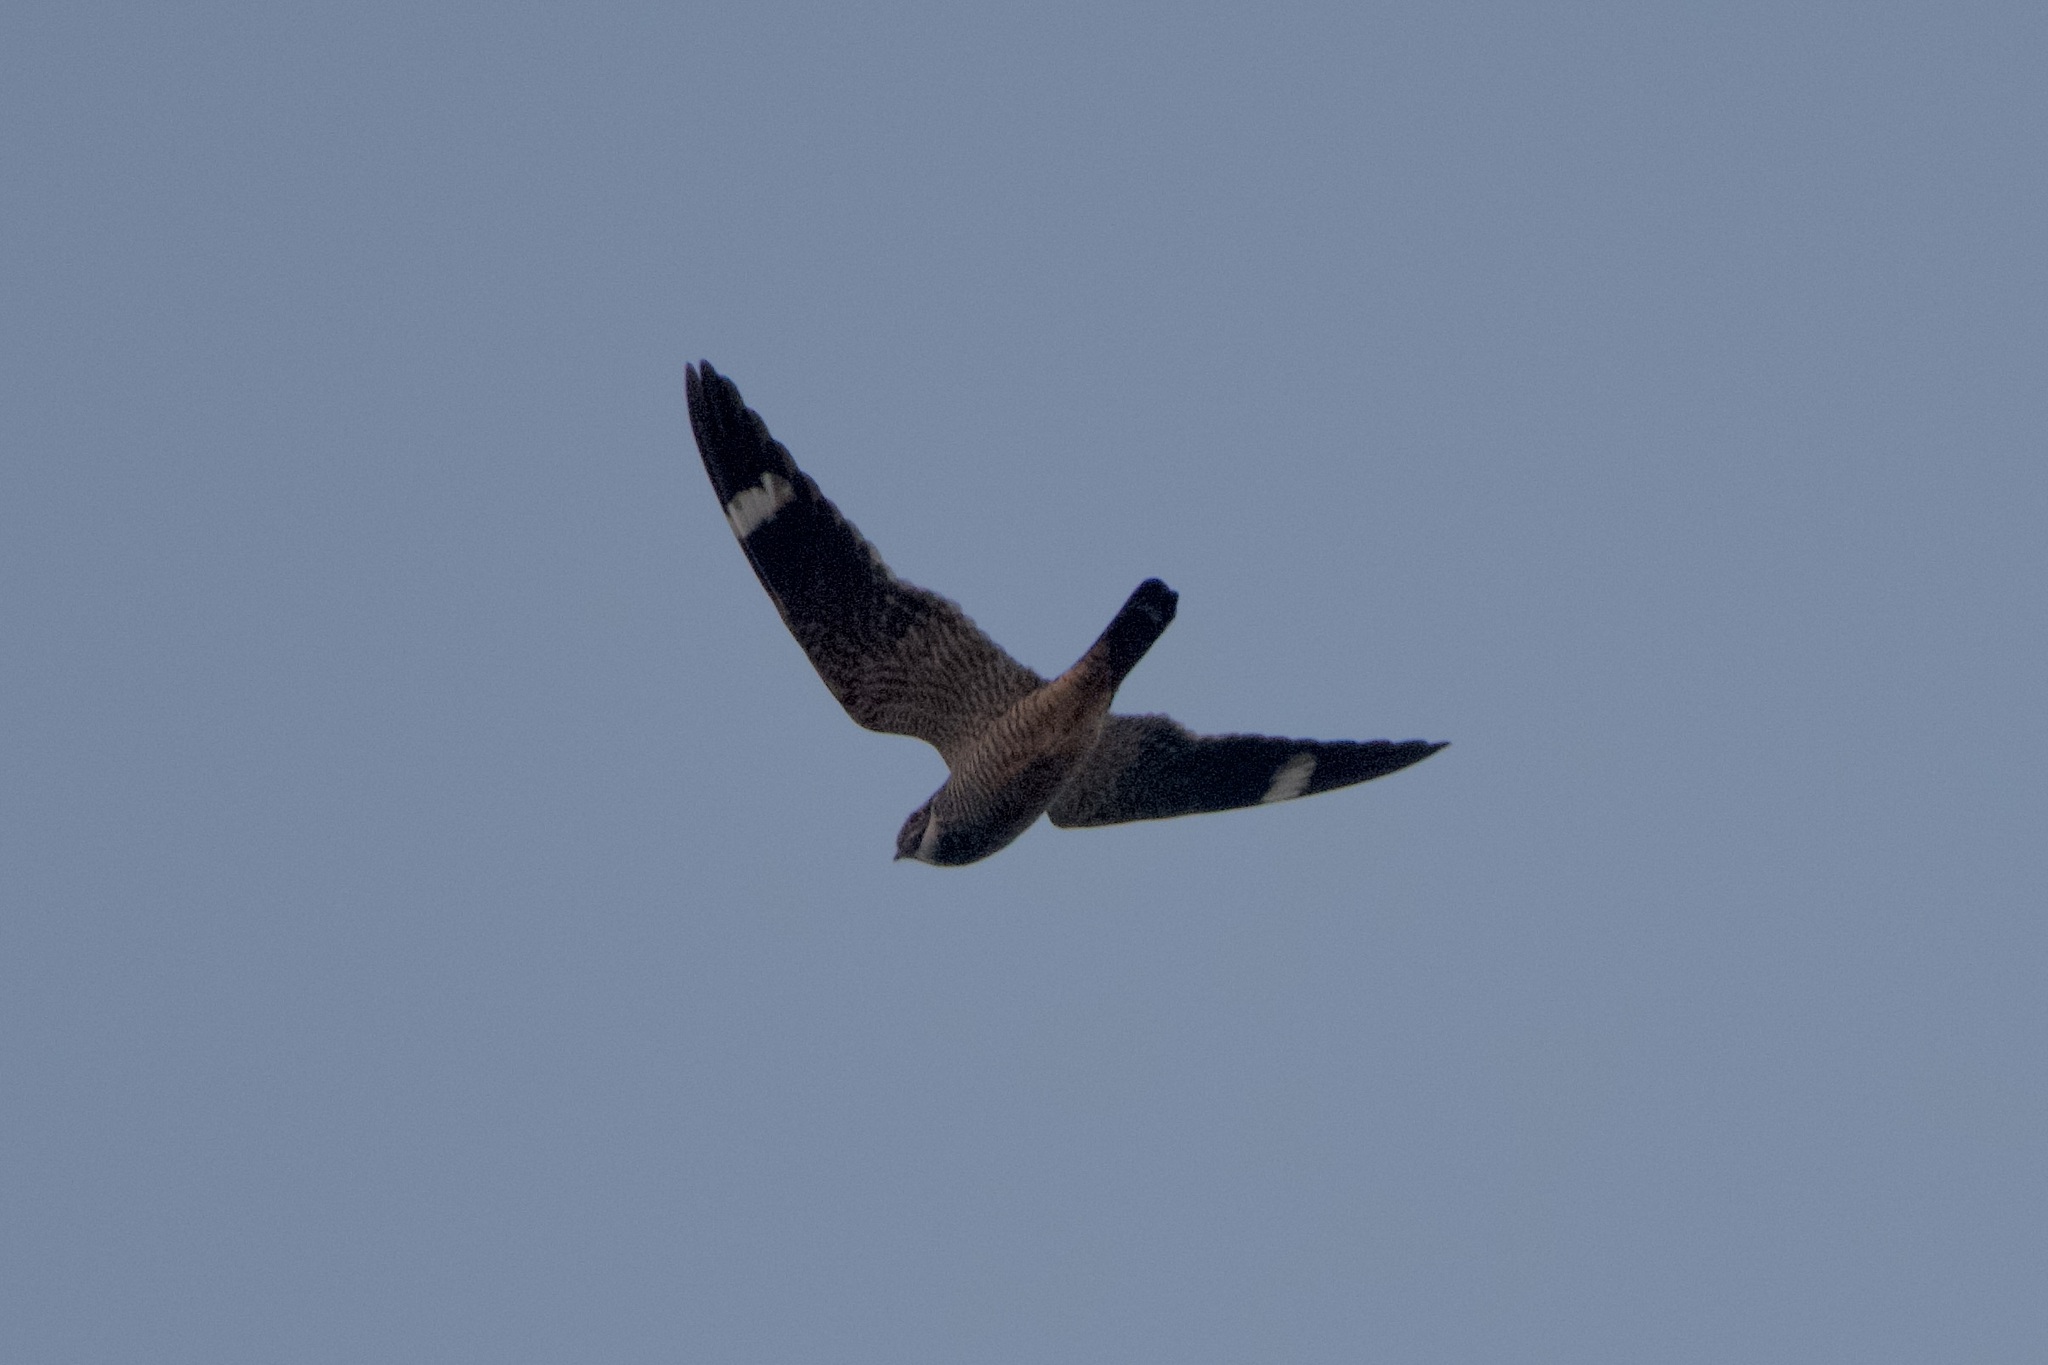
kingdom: Animalia
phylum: Chordata
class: Aves
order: Caprimulgiformes
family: Caprimulgidae
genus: Chordeiles
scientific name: Chordeiles acutipennis
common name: Lesser nighthawk
